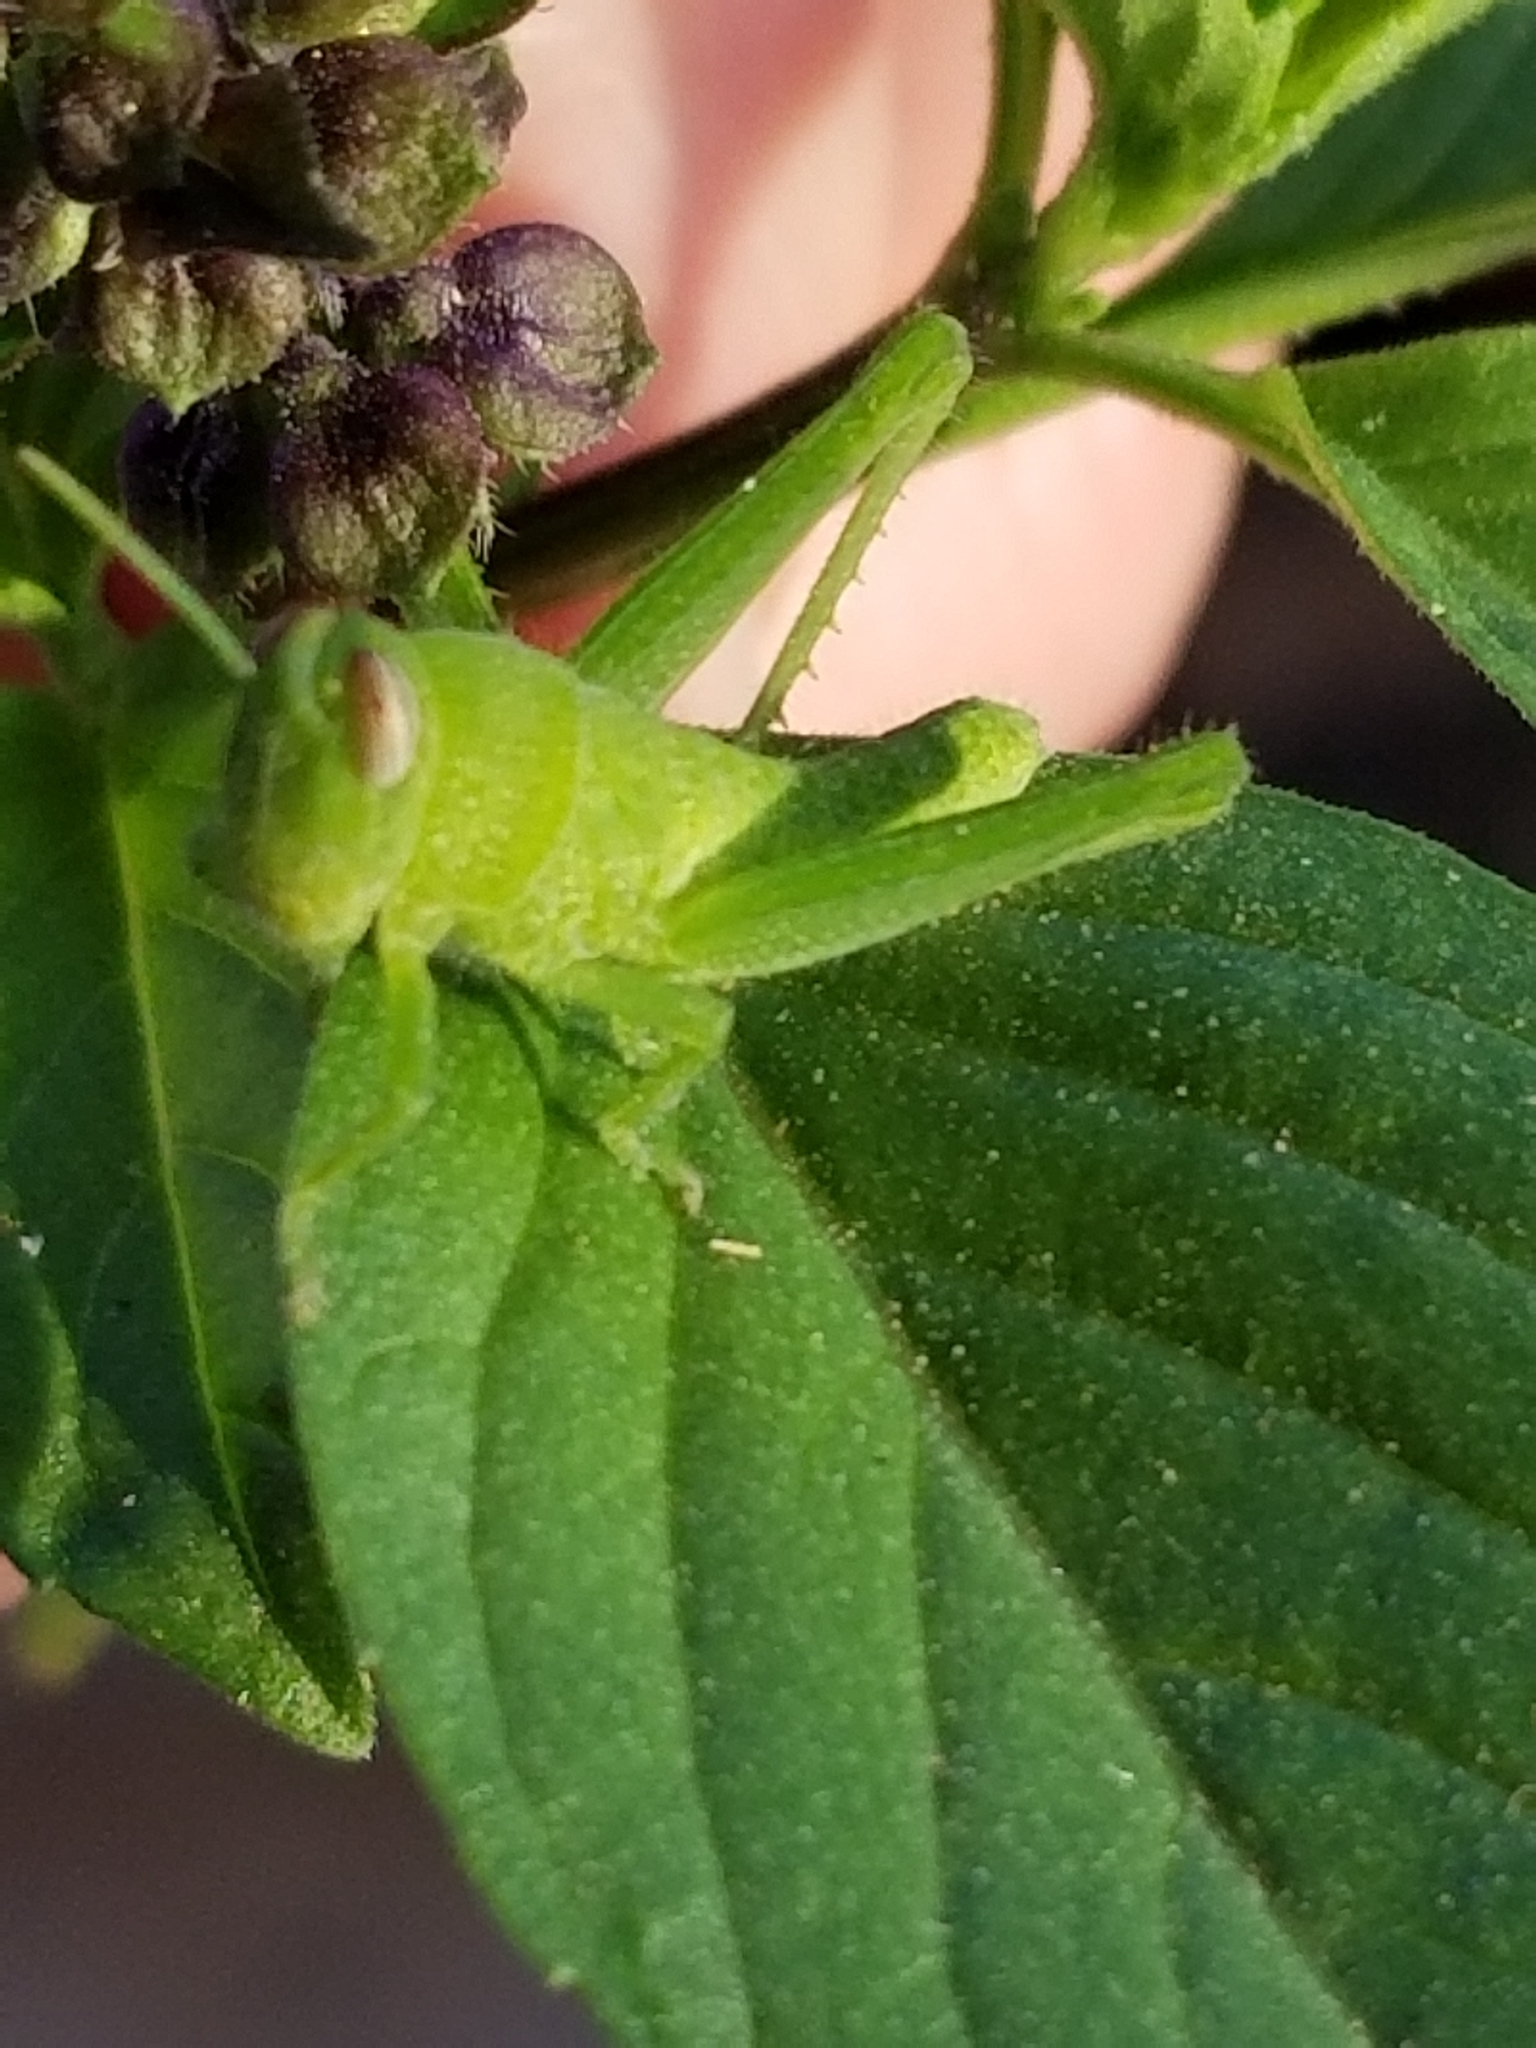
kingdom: Animalia
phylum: Arthropoda
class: Insecta
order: Orthoptera
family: Acrididae
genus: Schistocerca
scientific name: Schistocerca nitens
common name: Vagrant grasshopper
